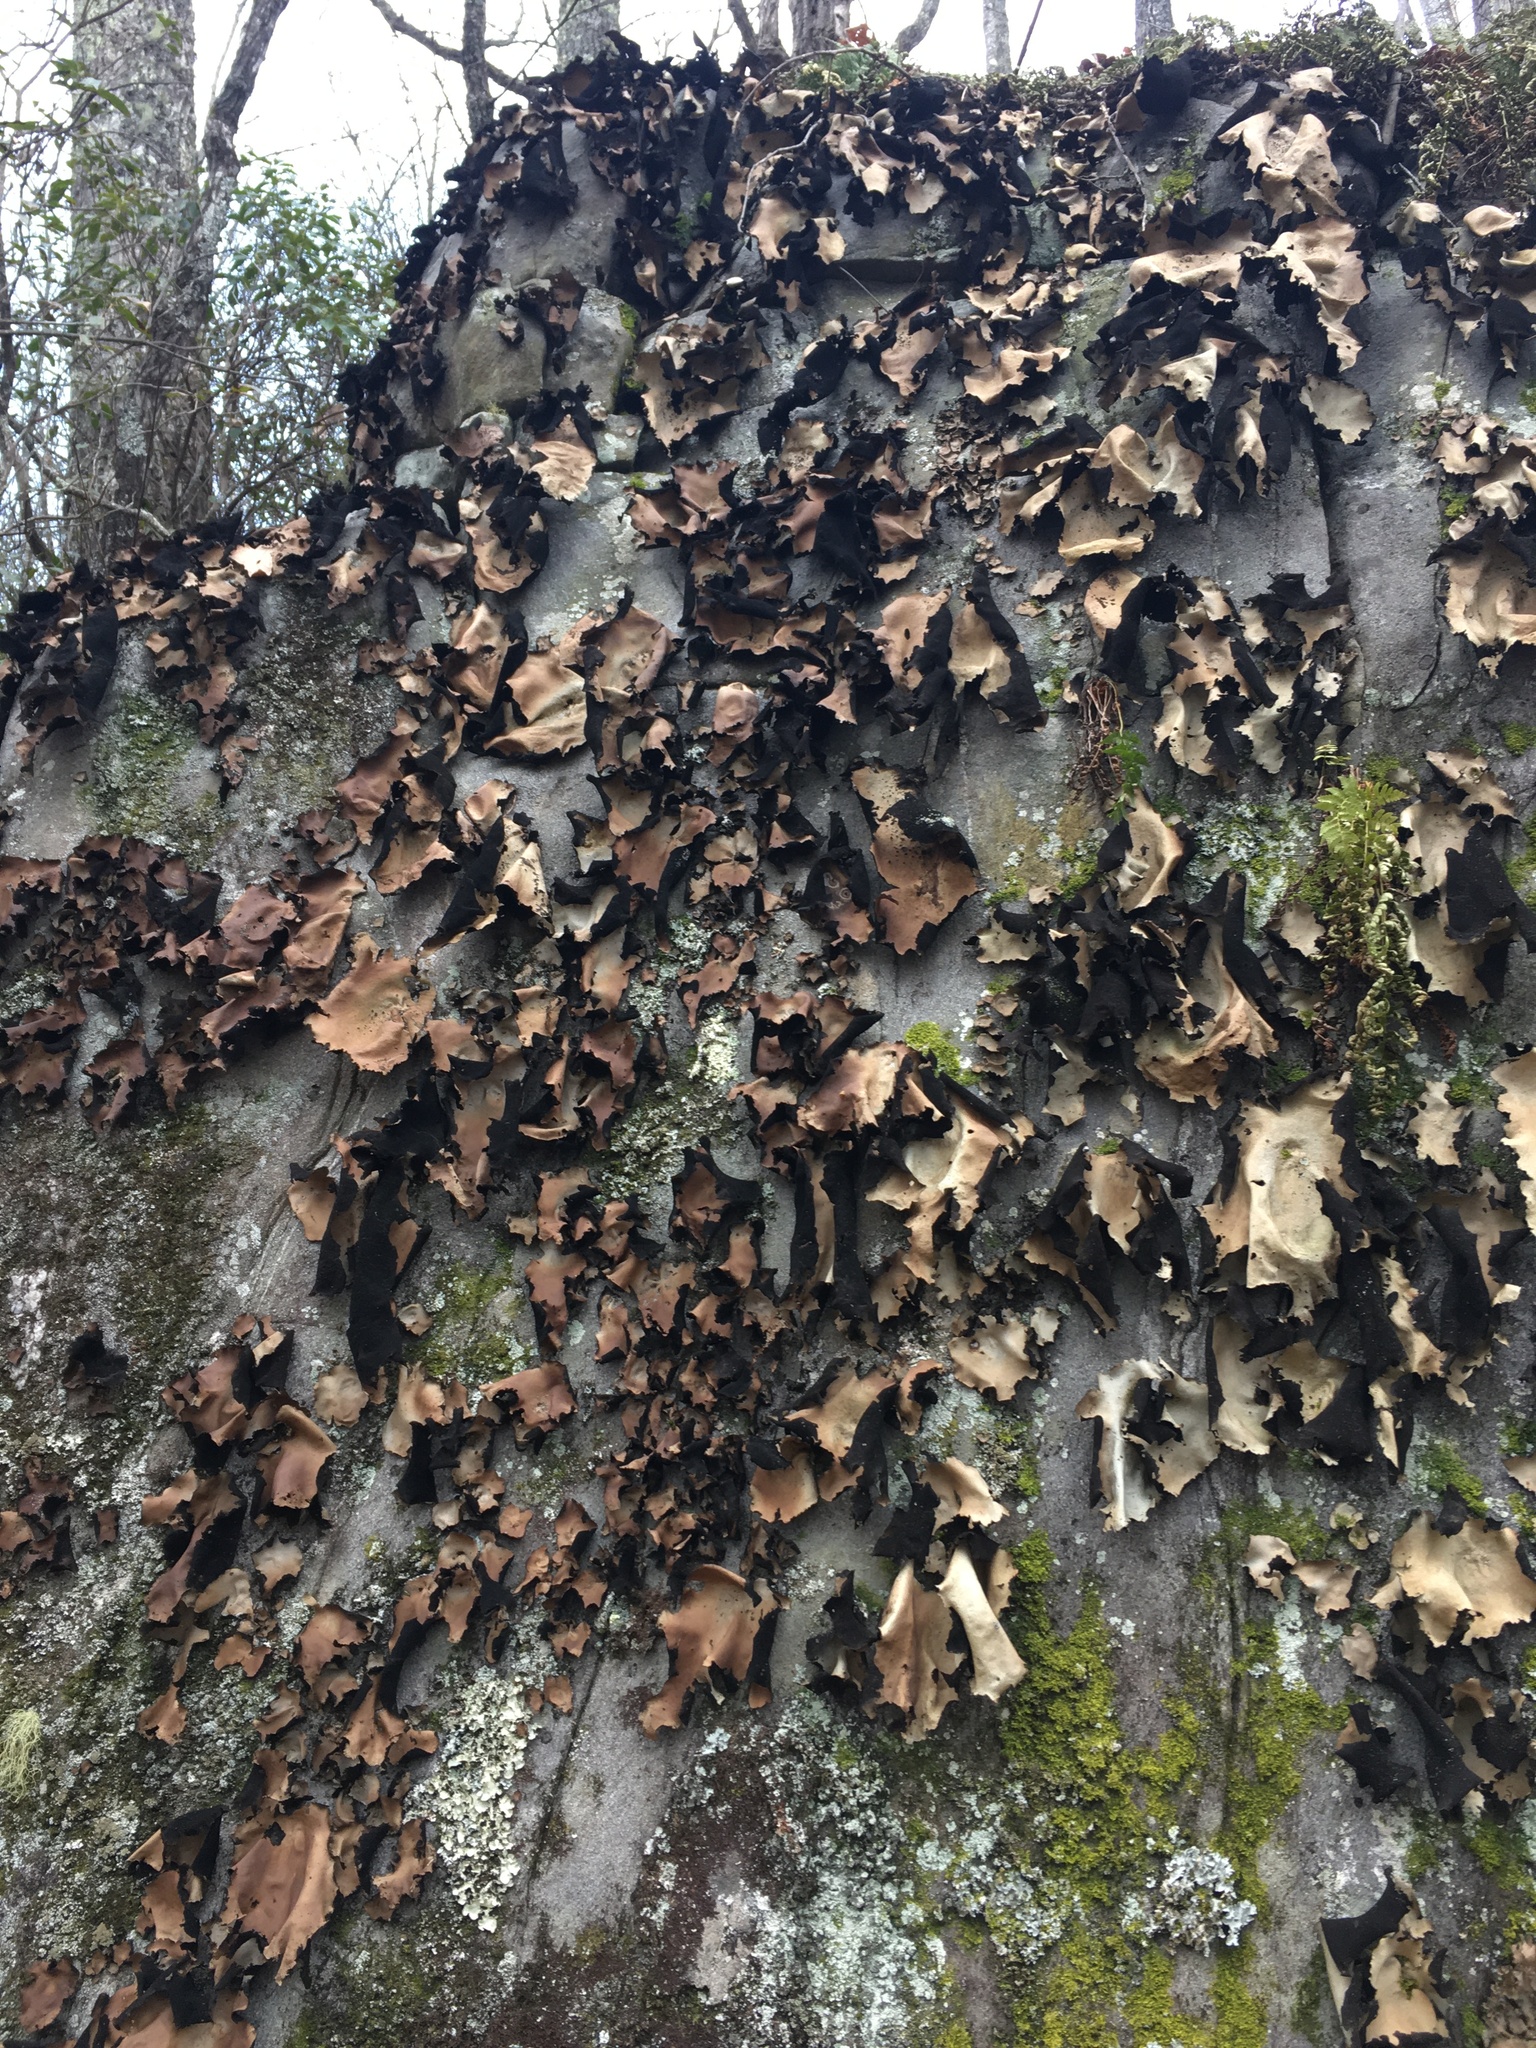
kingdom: Fungi
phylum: Ascomycota
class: Lecanoromycetes
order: Umbilicariales
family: Umbilicariaceae
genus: Umbilicaria
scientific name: Umbilicaria mammulata
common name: Smooth rock tripe
